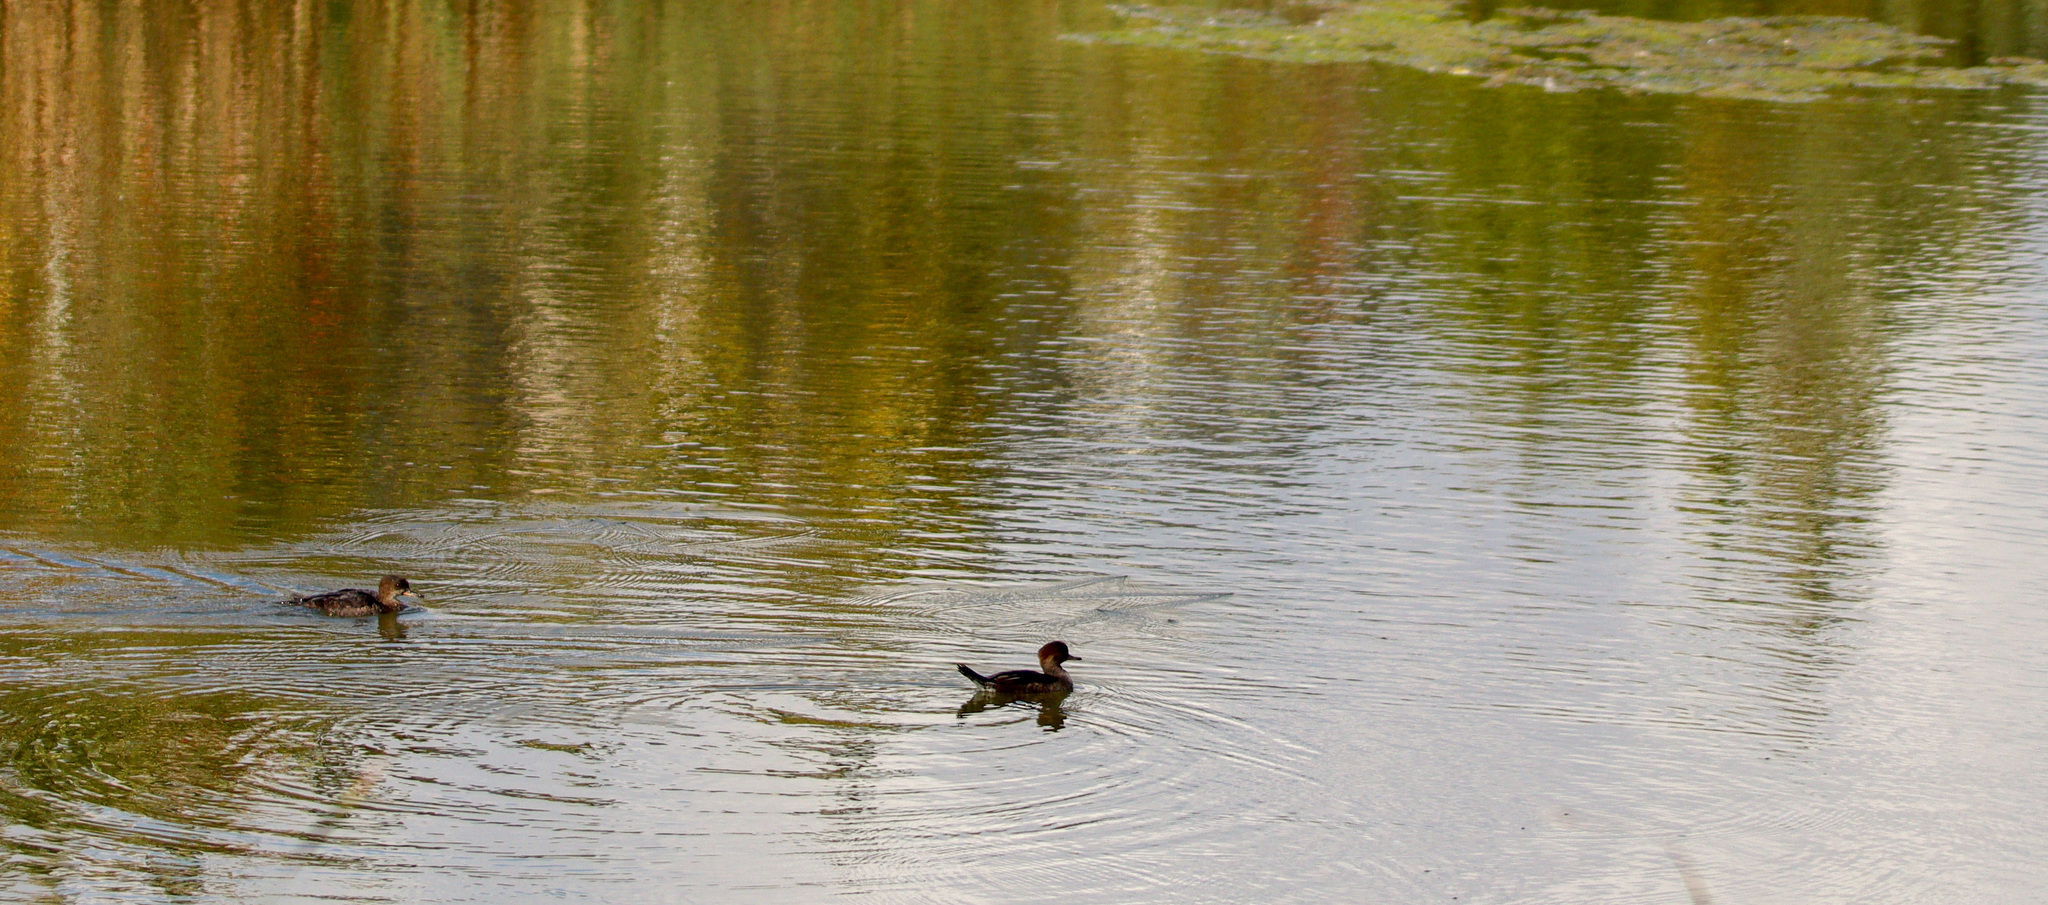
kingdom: Animalia
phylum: Chordata
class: Aves
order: Anseriformes
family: Anatidae
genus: Lophodytes
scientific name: Lophodytes cucullatus
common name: Hooded merganser
